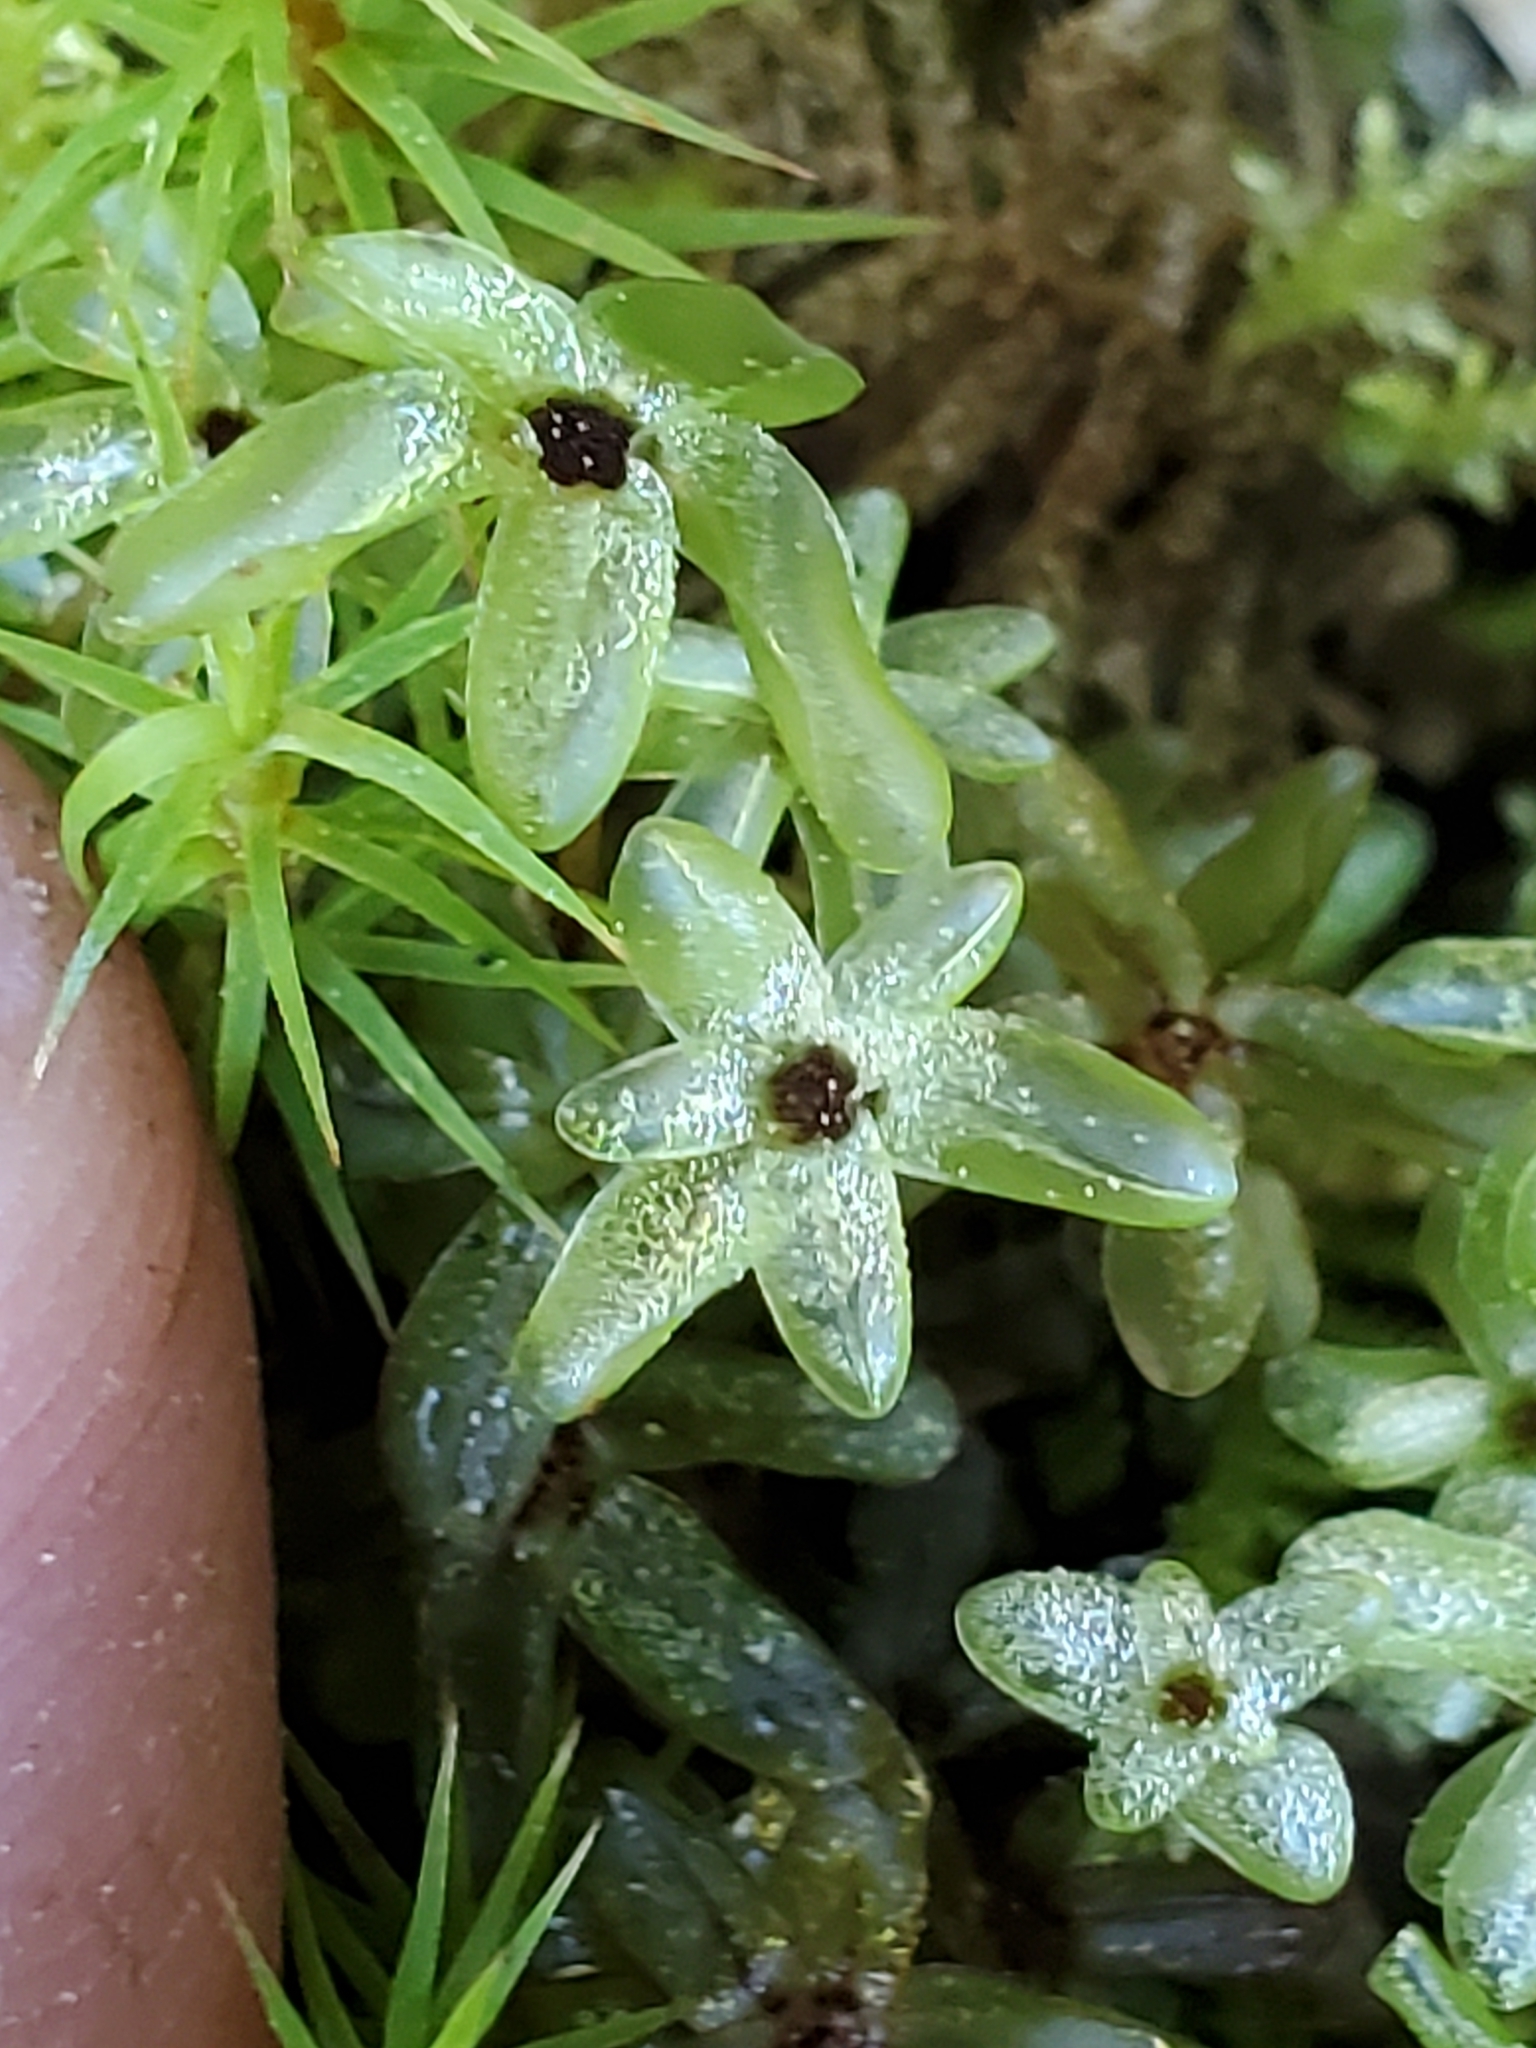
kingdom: Plantae
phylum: Bryophyta
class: Bryopsida
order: Bryales
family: Mniaceae
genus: Rhizomnium
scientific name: Rhizomnium glabrescens
